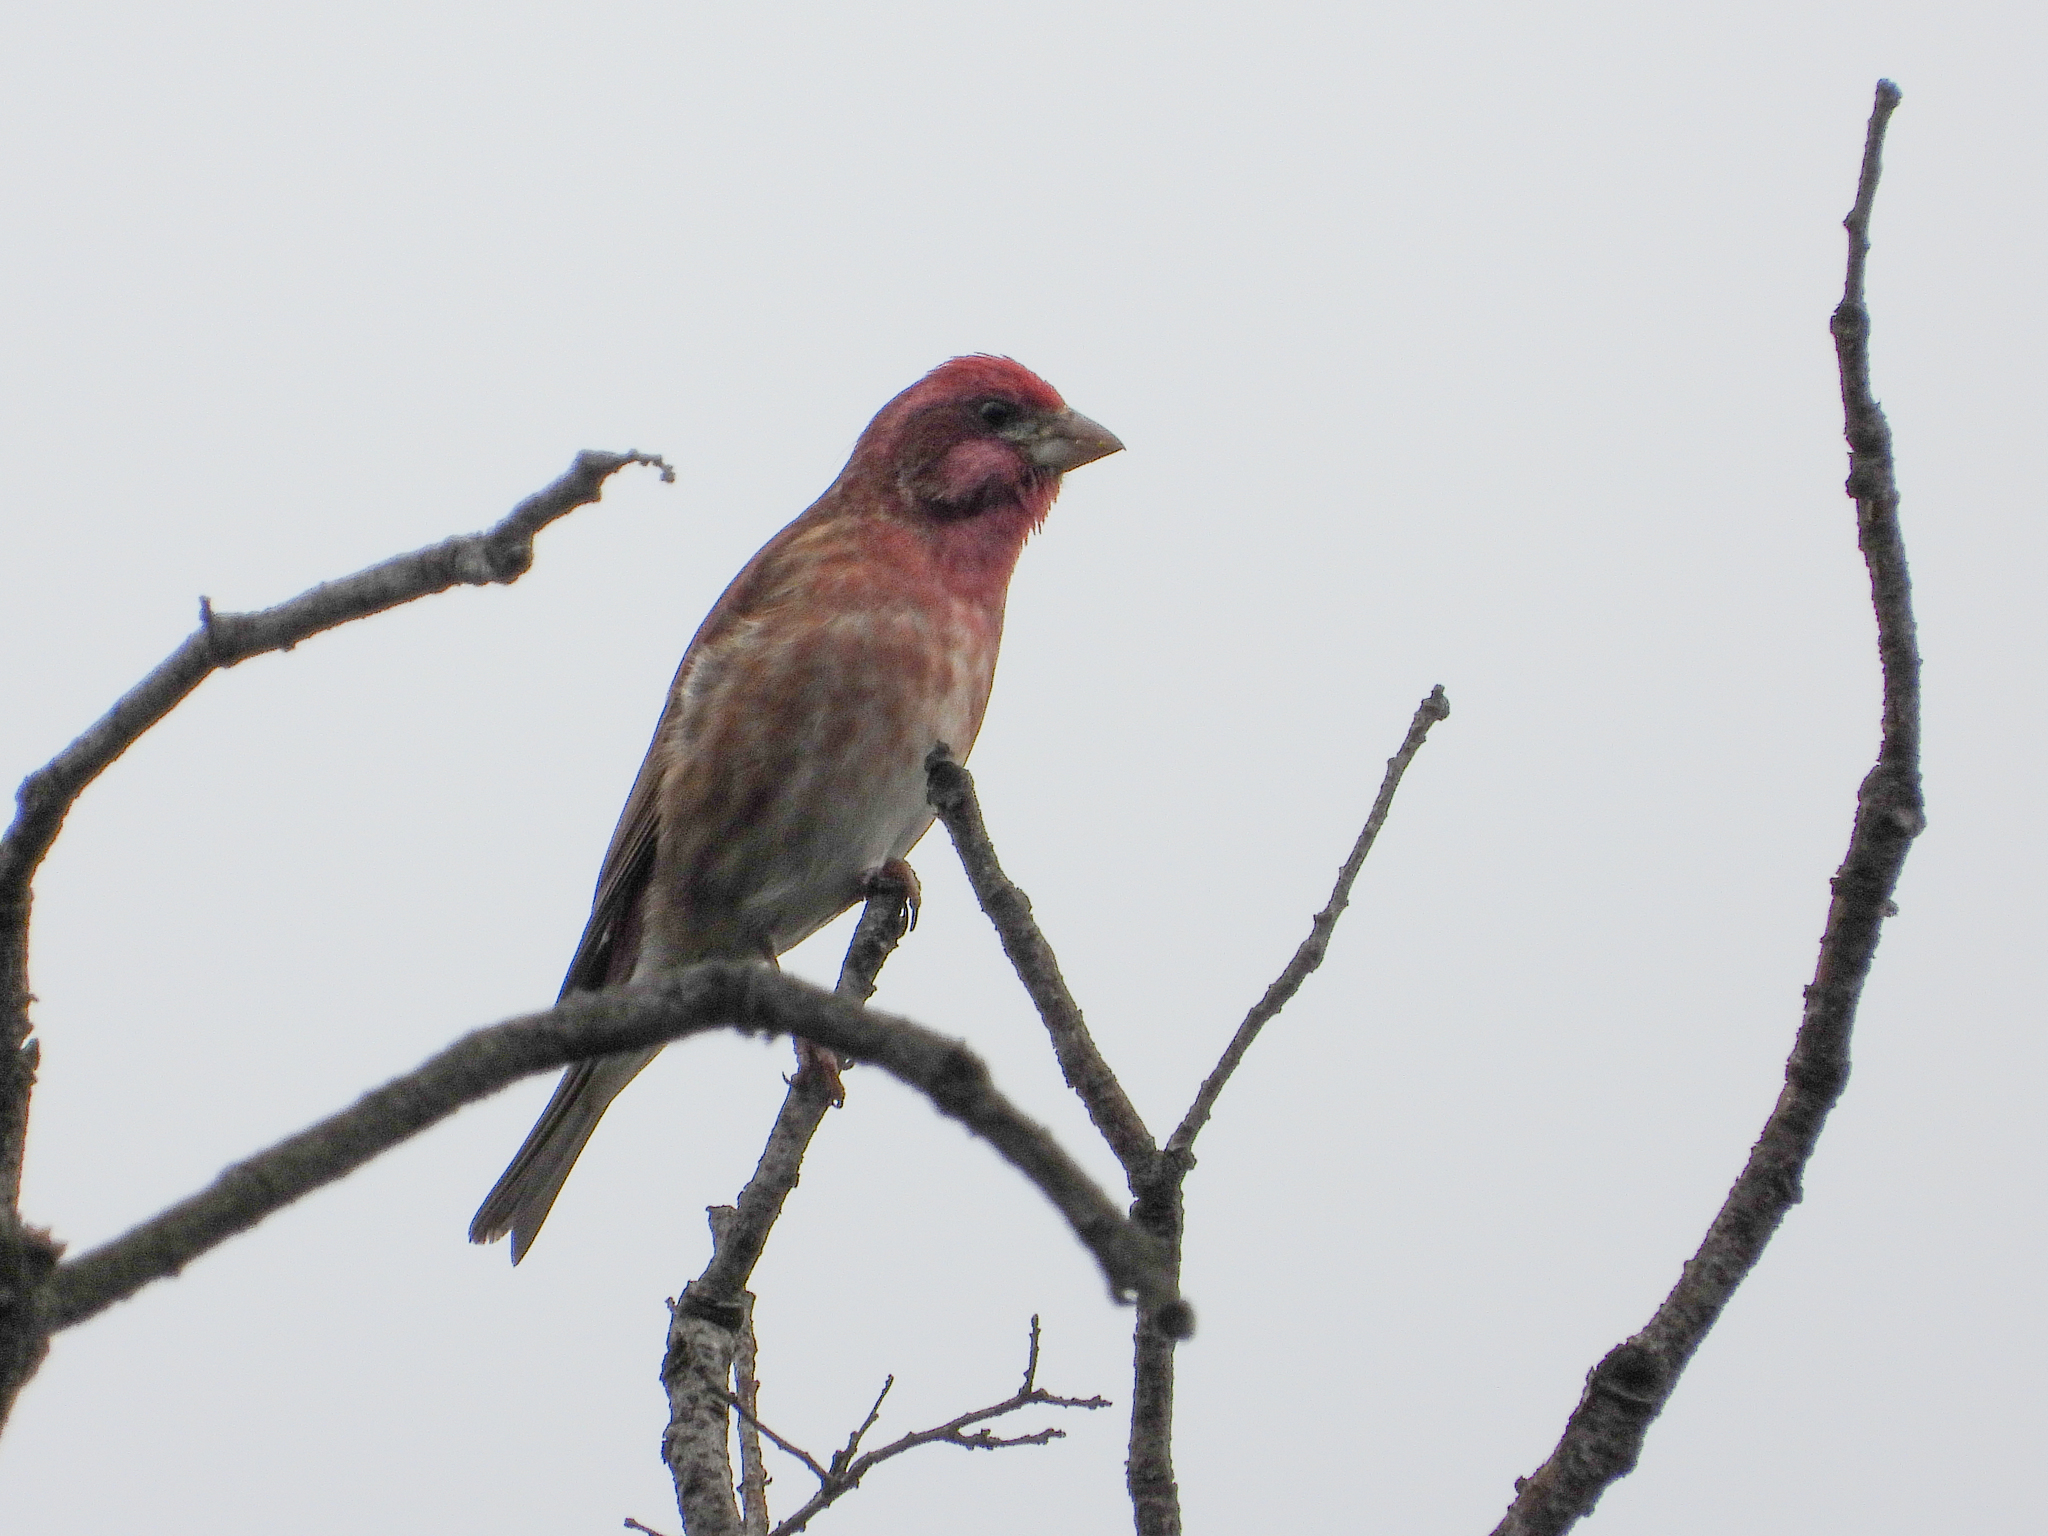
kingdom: Animalia
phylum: Chordata
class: Aves
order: Passeriformes
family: Fringillidae
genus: Haemorhous
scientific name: Haemorhous purpureus
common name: Purple finch
